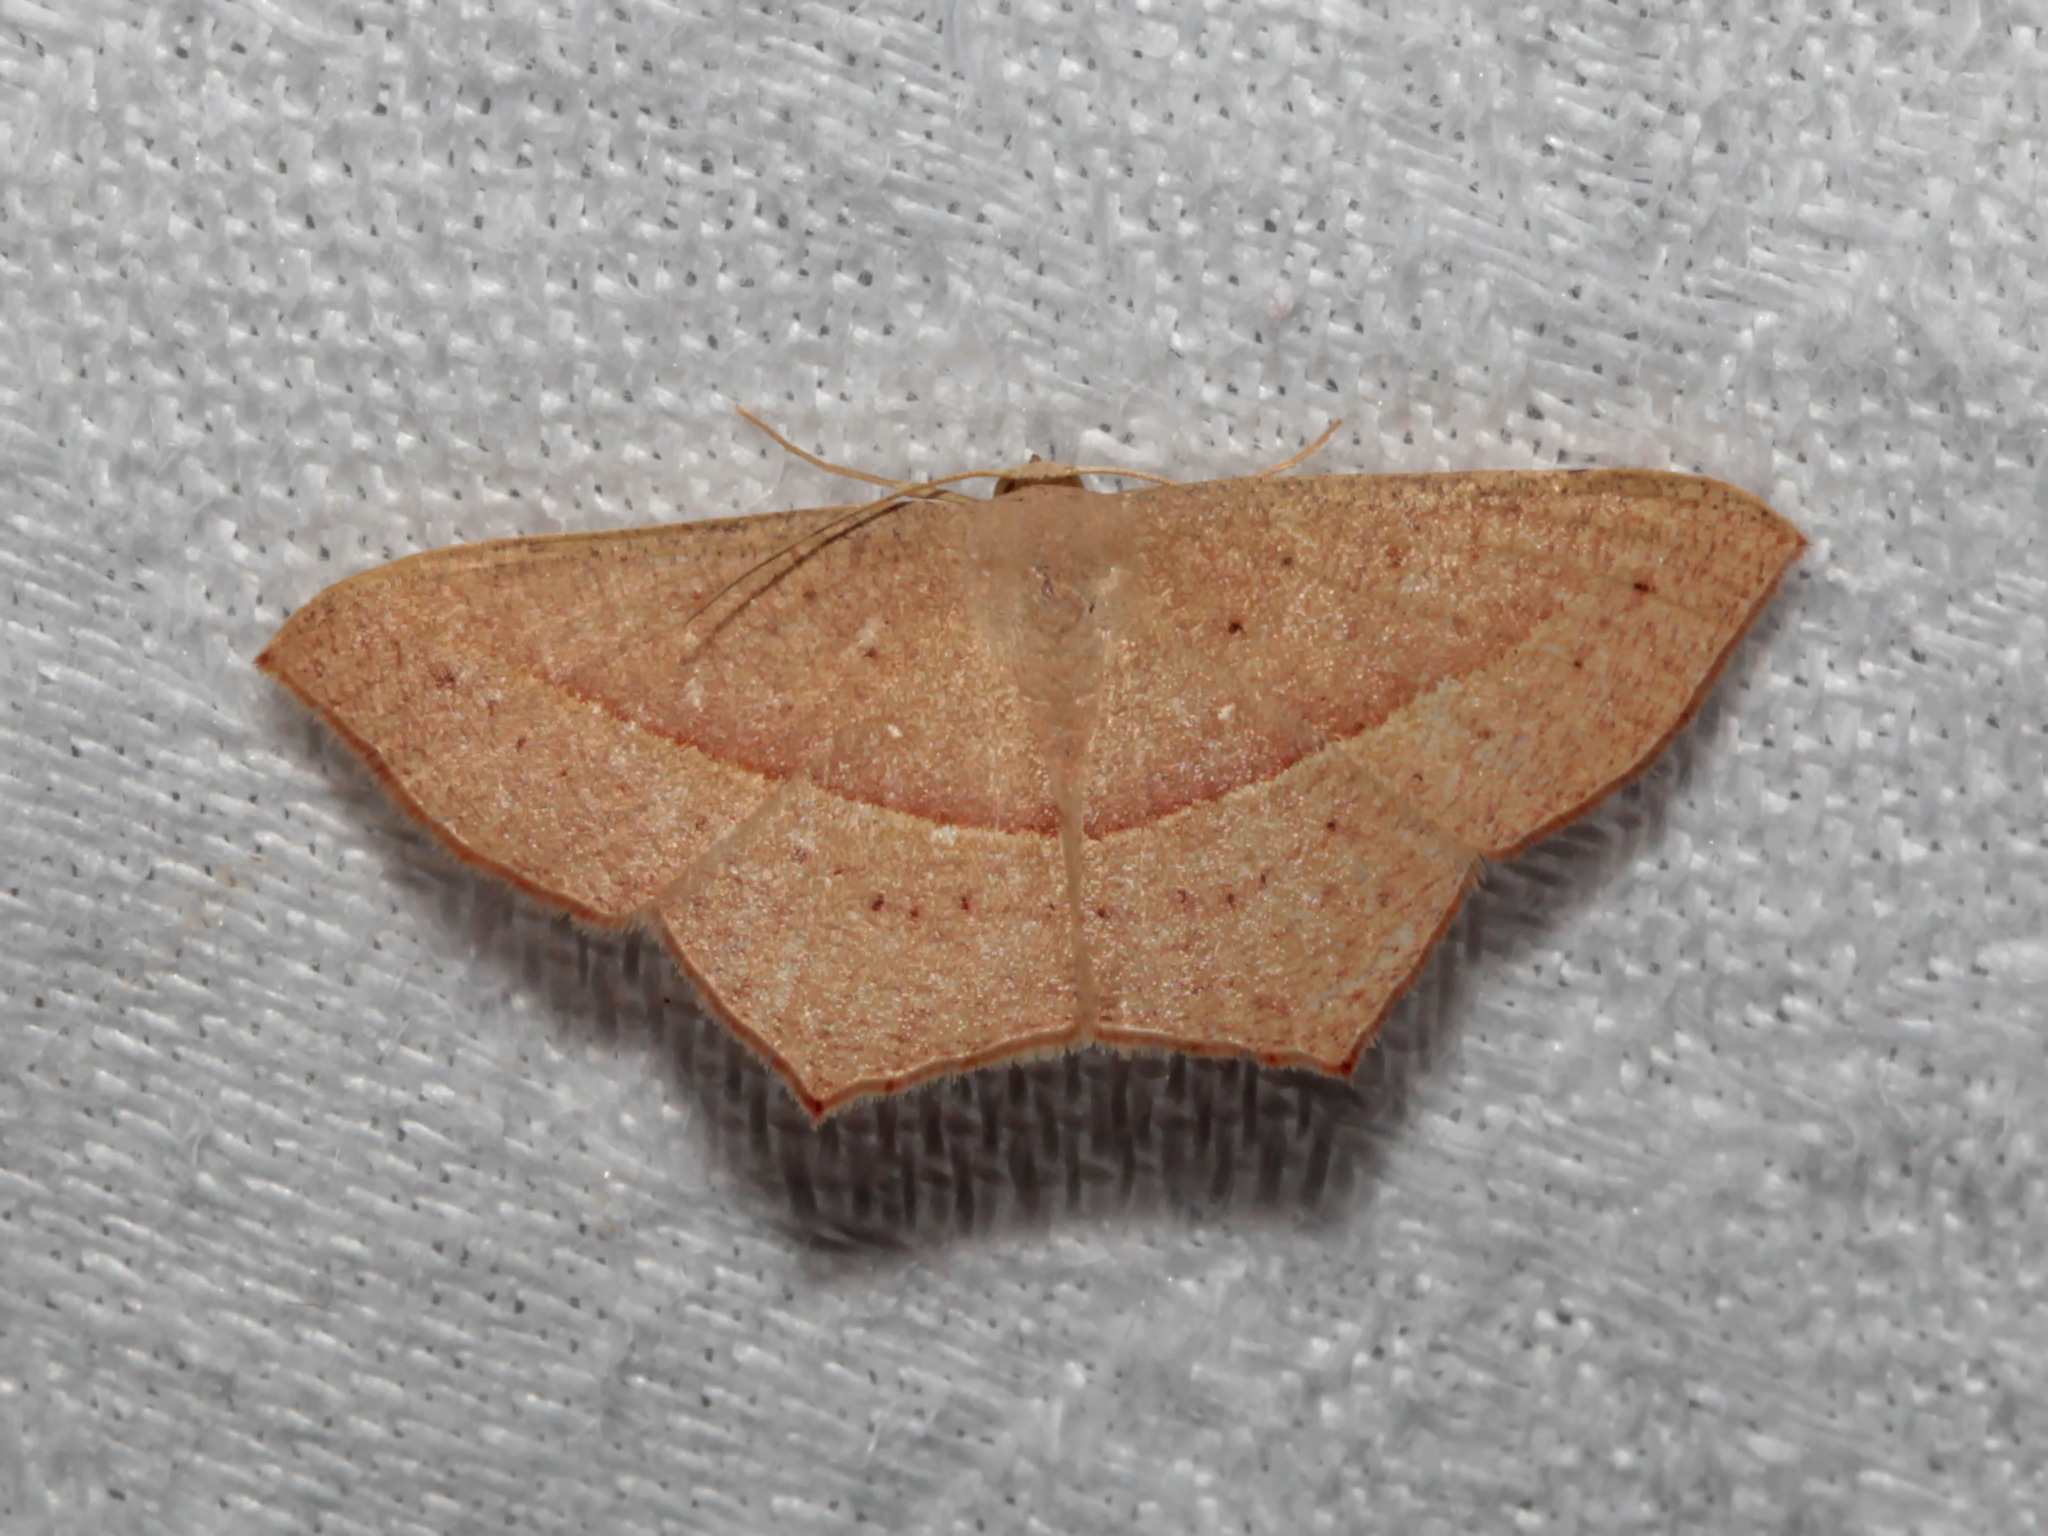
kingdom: Animalia
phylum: Arthropoda
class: Insecta
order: Lepidoptera
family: Geometridae
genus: Traminda
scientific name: Traminda mundissima
